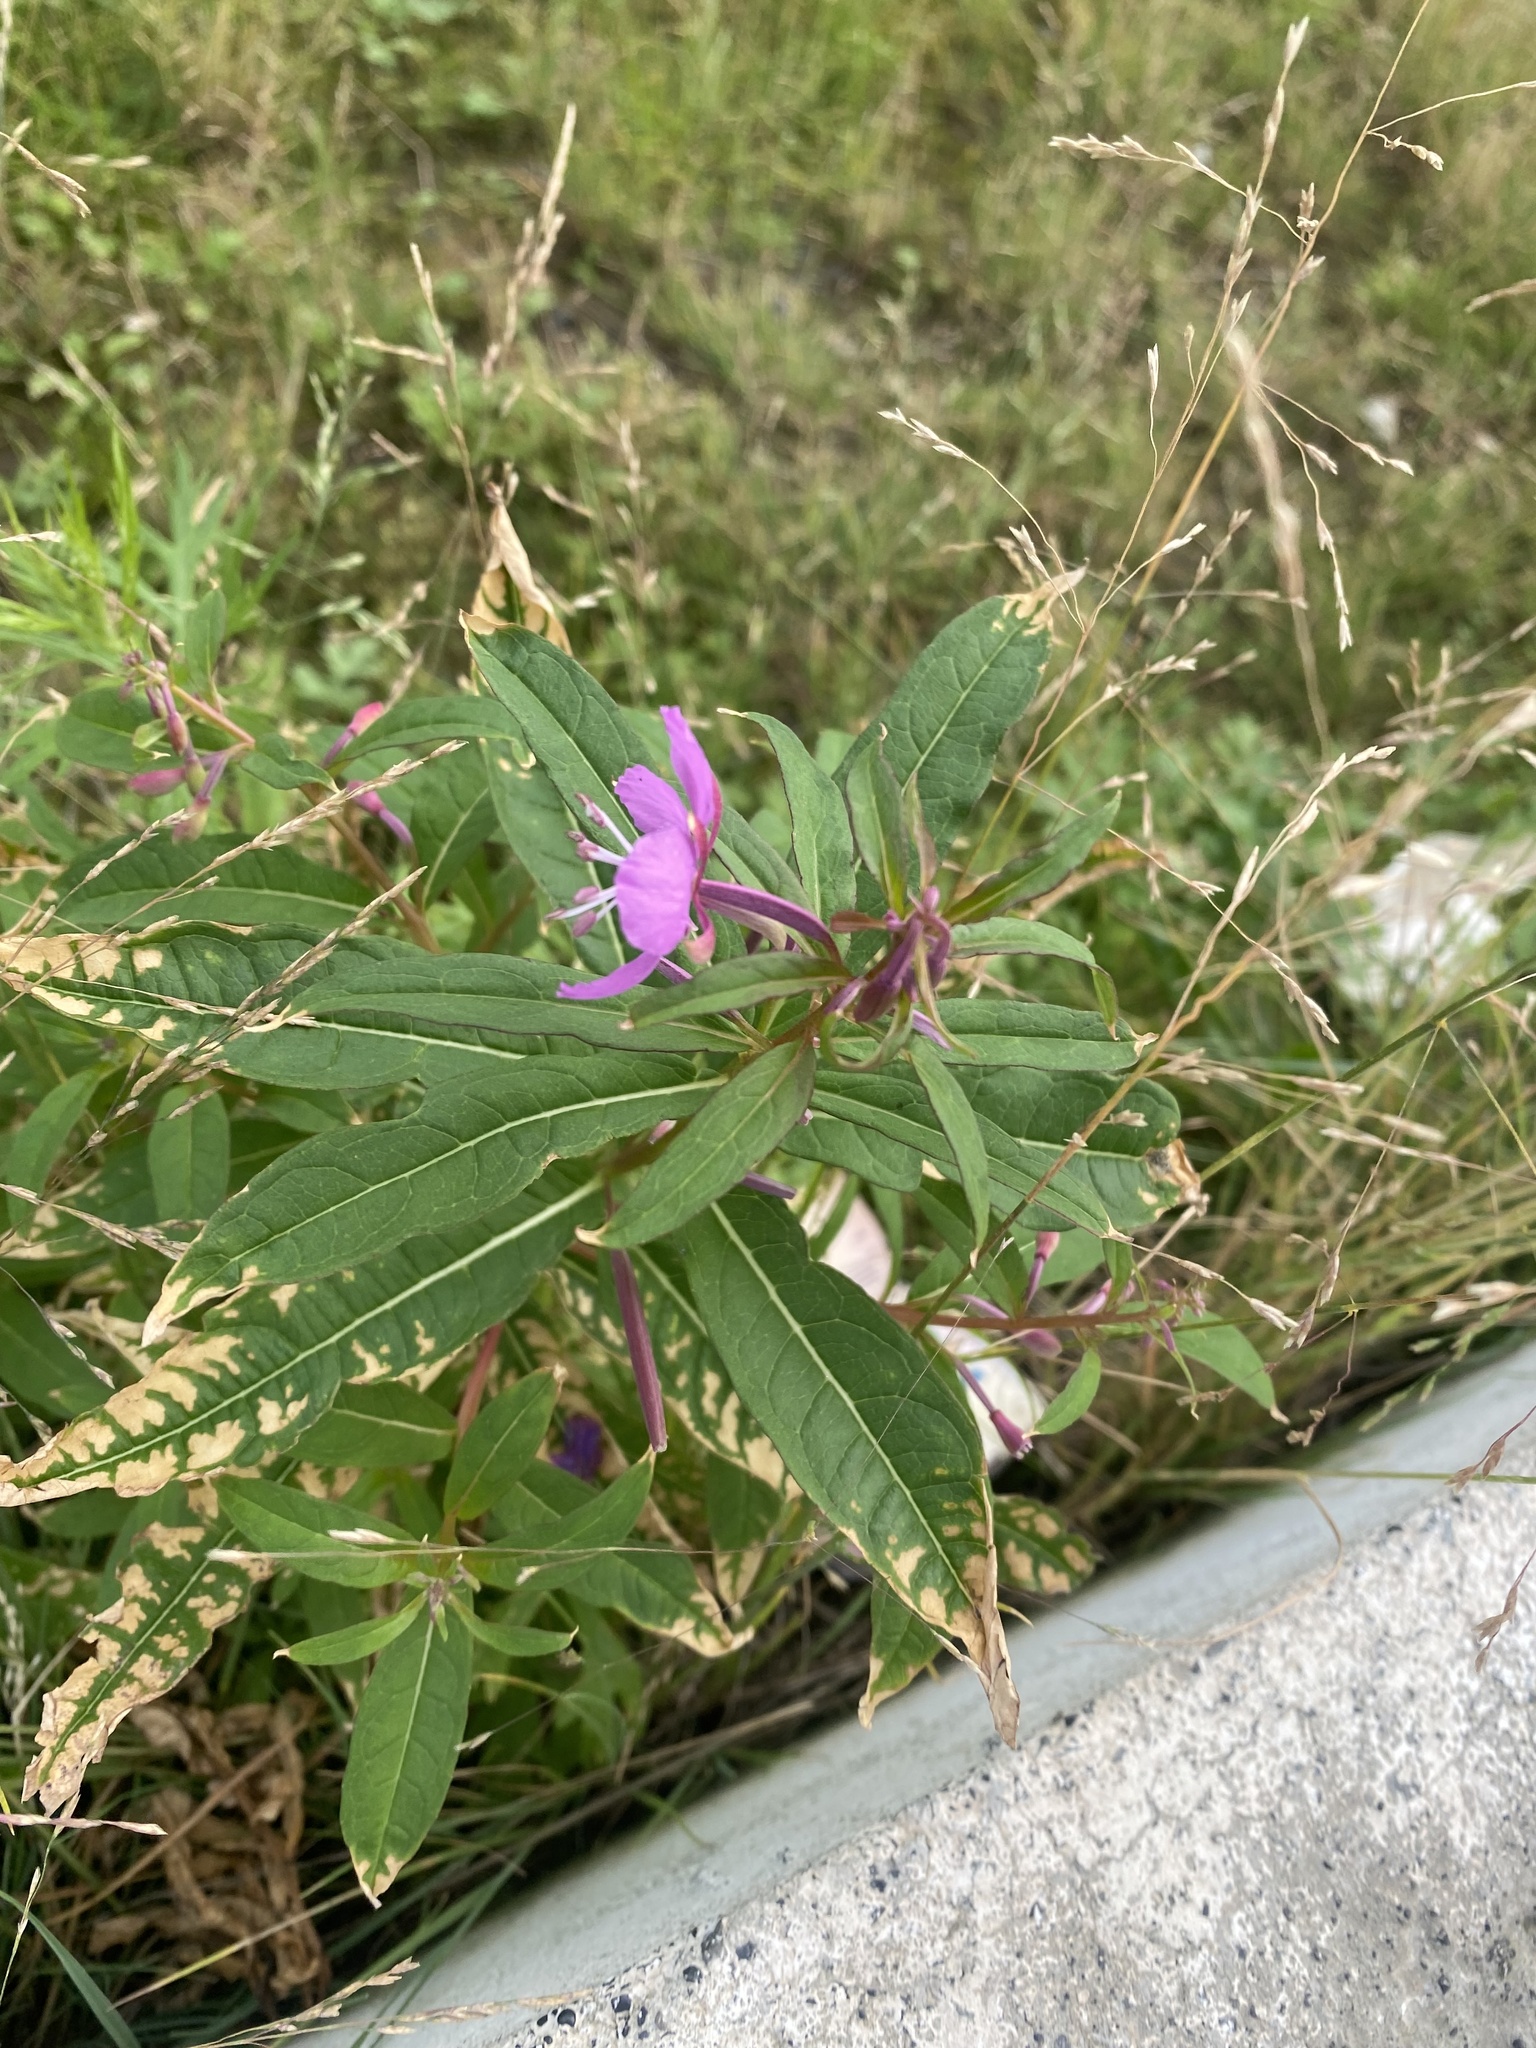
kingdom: Plantae
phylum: Tracheophyta
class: Magnoliopsida
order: Myrtales
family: Onagraceae
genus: Chamaenerion
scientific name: Chamaenerion angustifolium
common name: Fireweed
